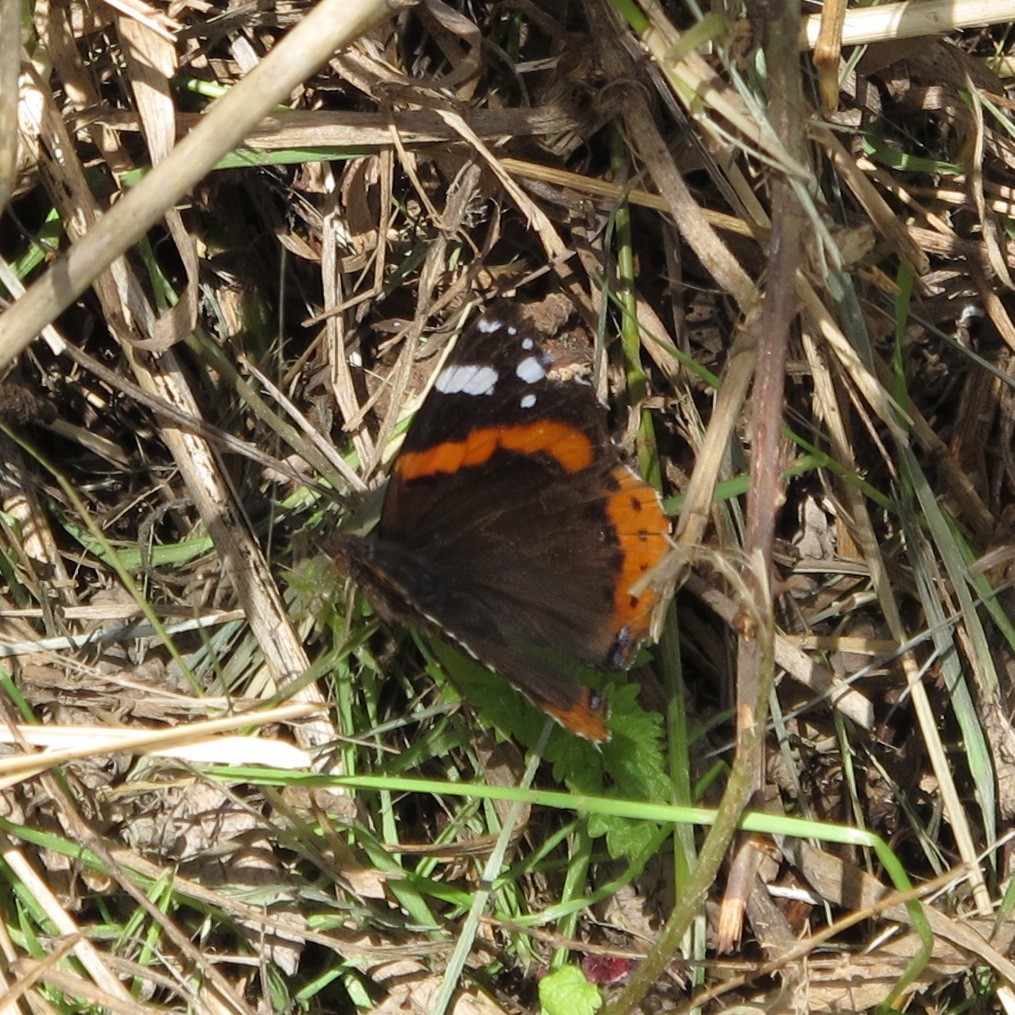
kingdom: Animalia
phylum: Arthropoda
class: Insecta
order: Lepidoptera
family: Nymphalidae
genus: Vanessa
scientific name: Vanessa atalanta
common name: Red admiral
